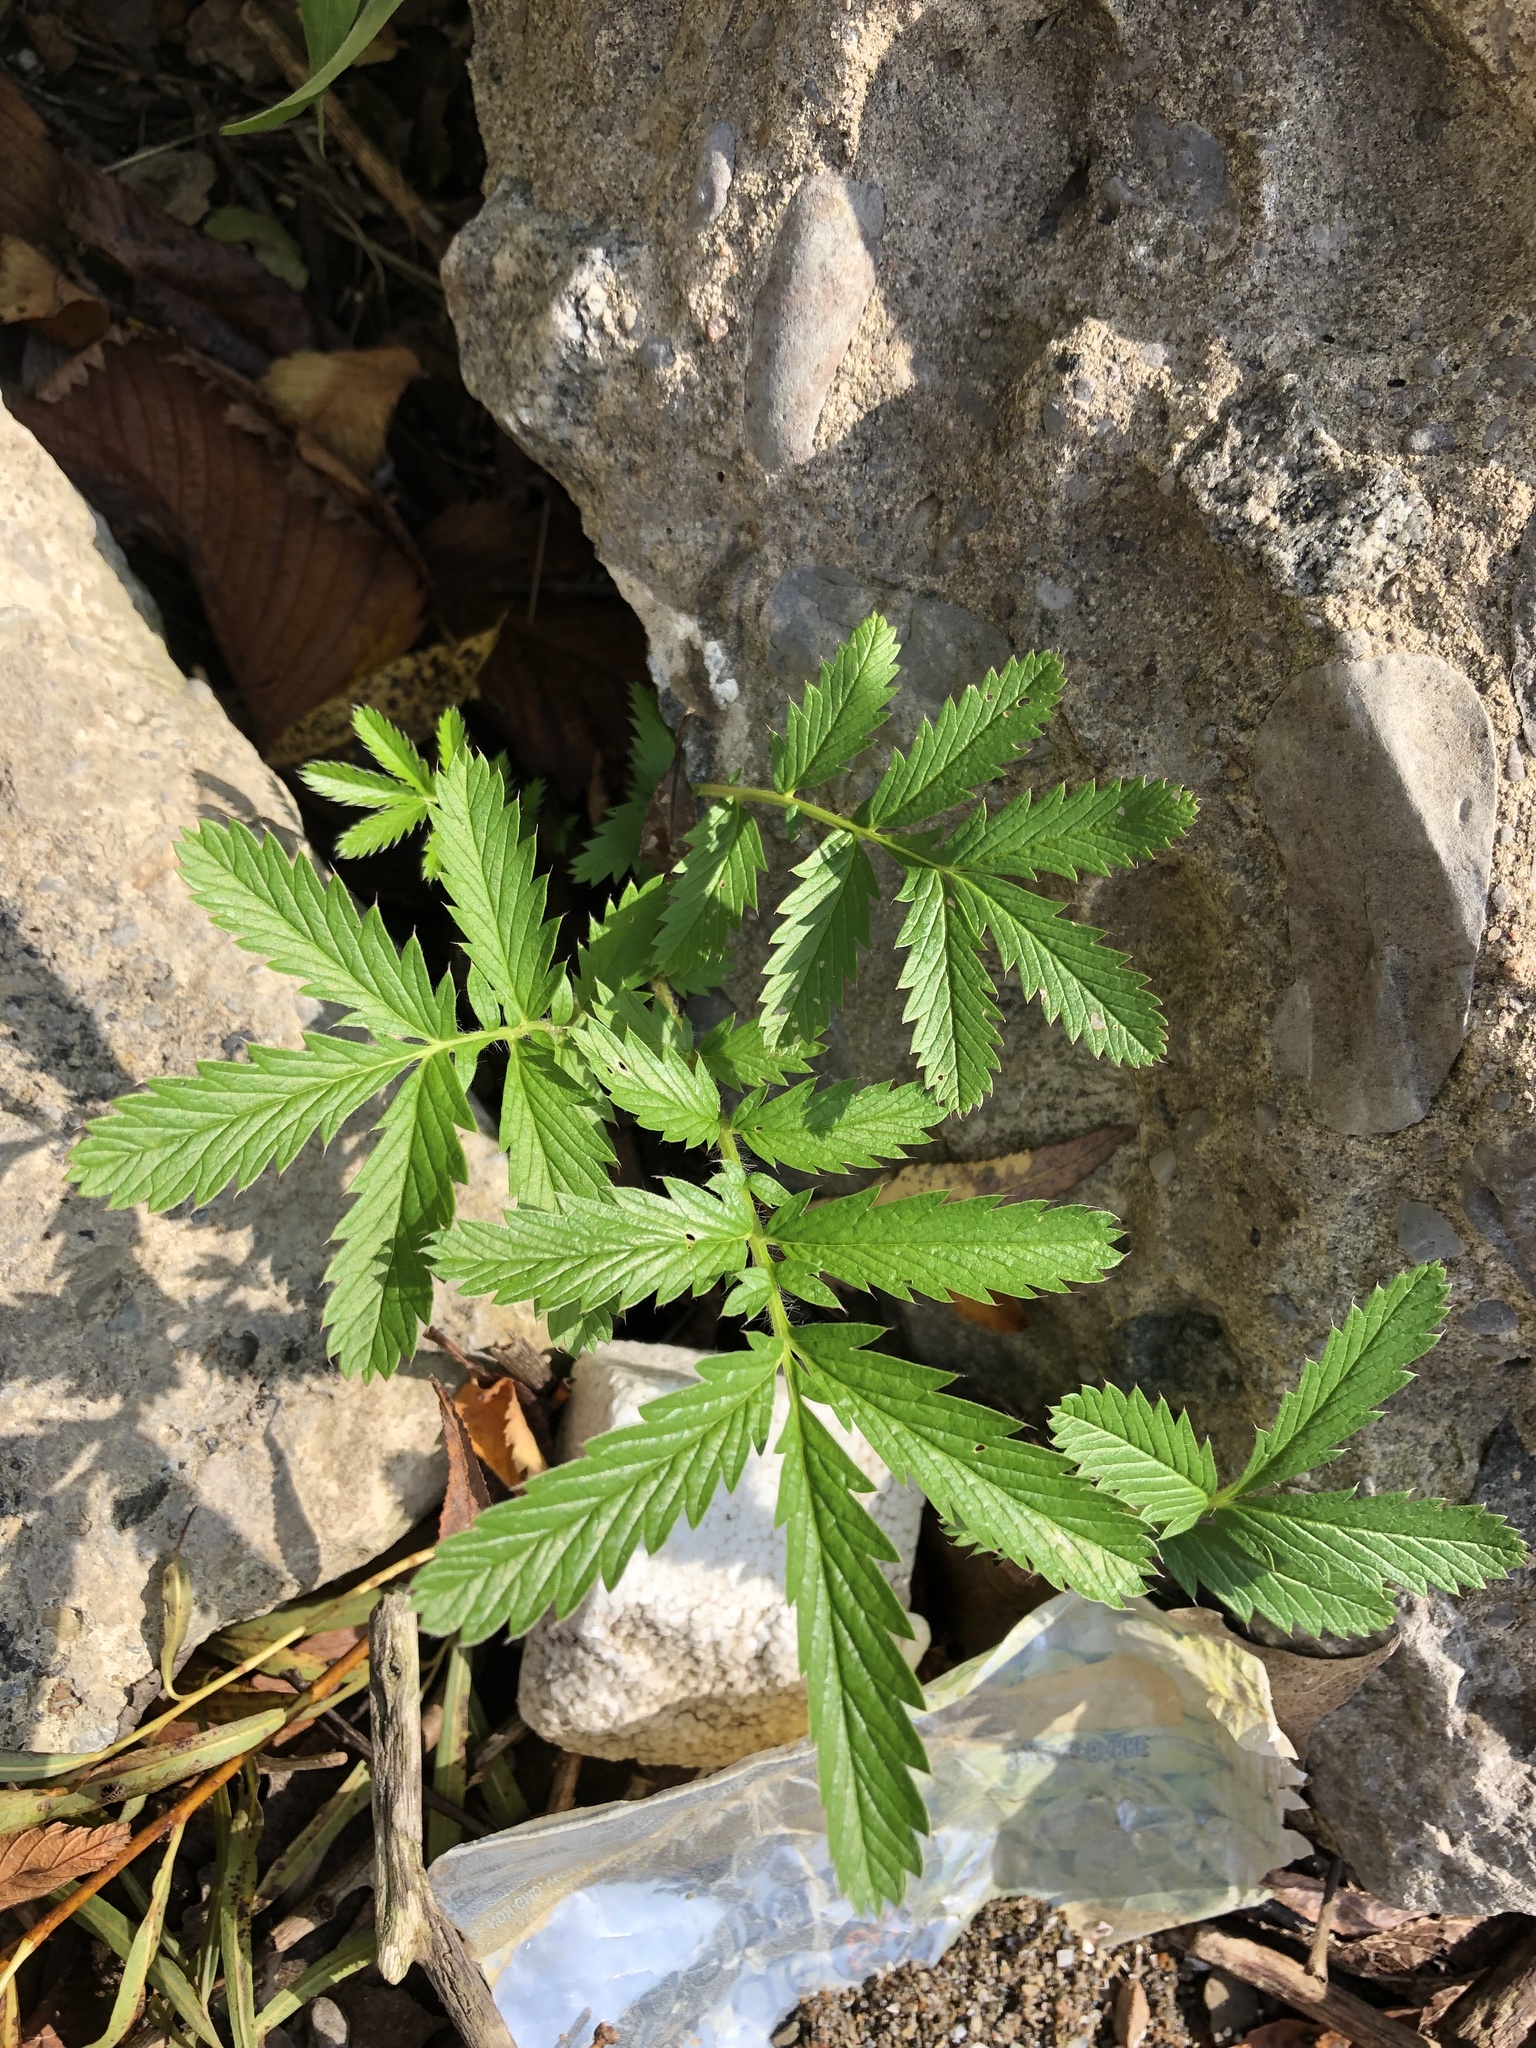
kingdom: Plantae
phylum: Tracheophyta
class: Magnoliopsida
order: Rosales
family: Rosaceae
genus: Argentina
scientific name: Argentina anserina
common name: Common silverweed
